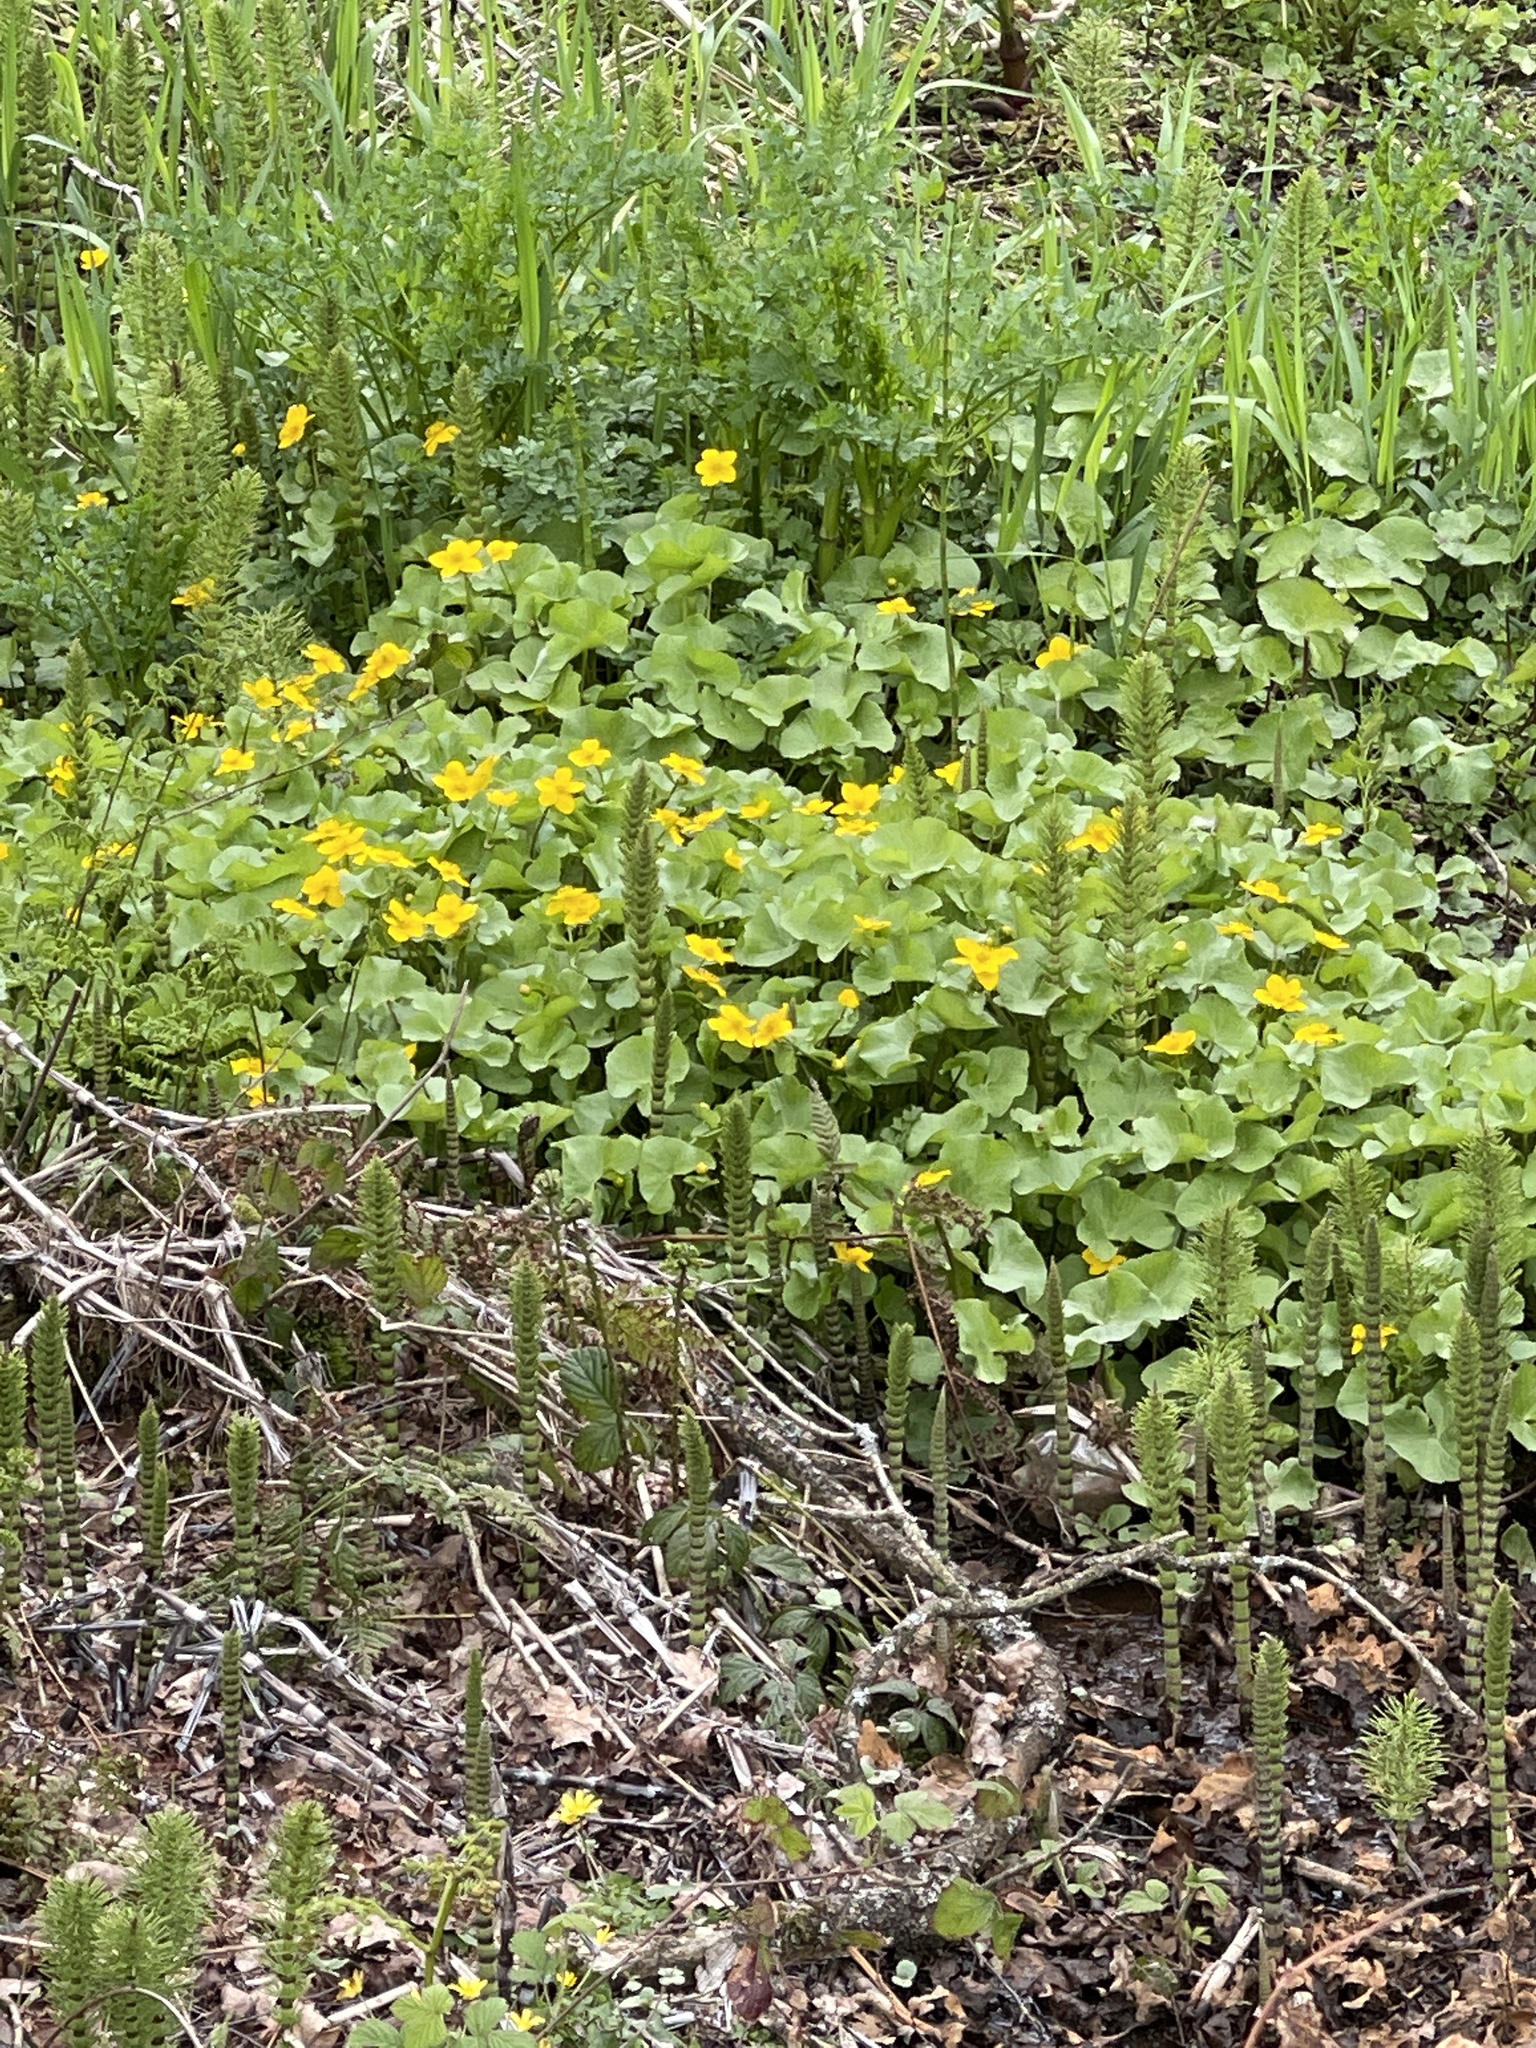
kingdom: Plantae
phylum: Tracheophyta
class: Magnoliopsida
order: Ranunculales
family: Ranunculaceae
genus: Caltha
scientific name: Caltha palustris
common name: Marsh marigold
